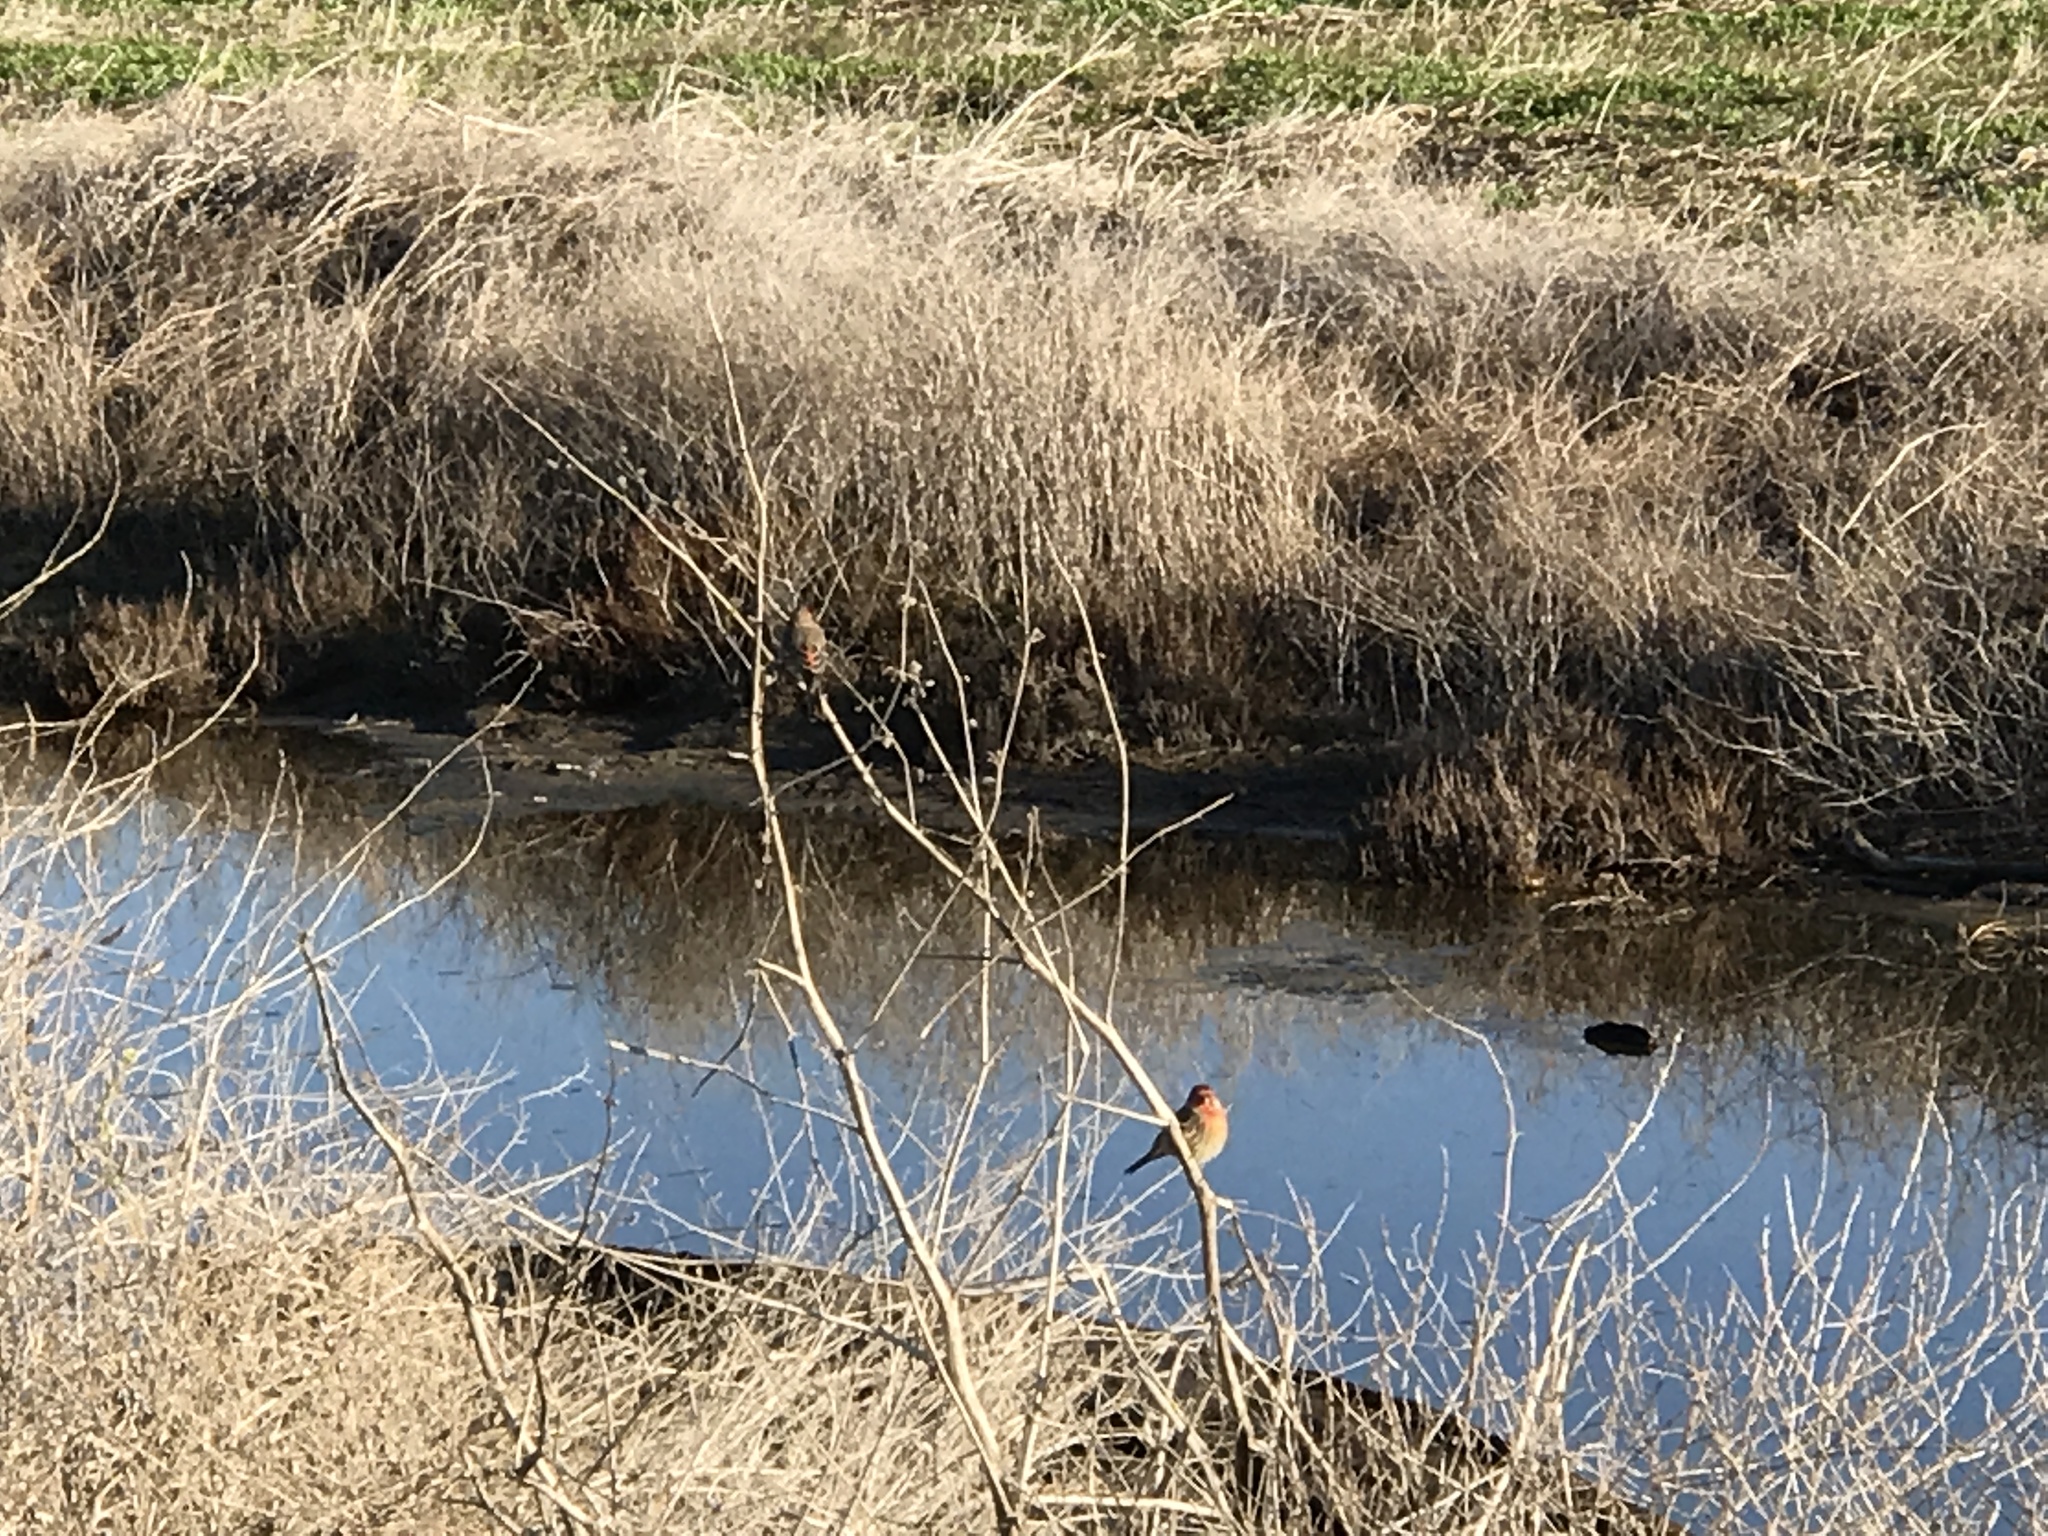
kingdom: Animalia
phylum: Chordata
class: Aves
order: Passeriformes
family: Fringillidae
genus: Haemorhous
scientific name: Haemorhous mexicanus
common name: House finch
